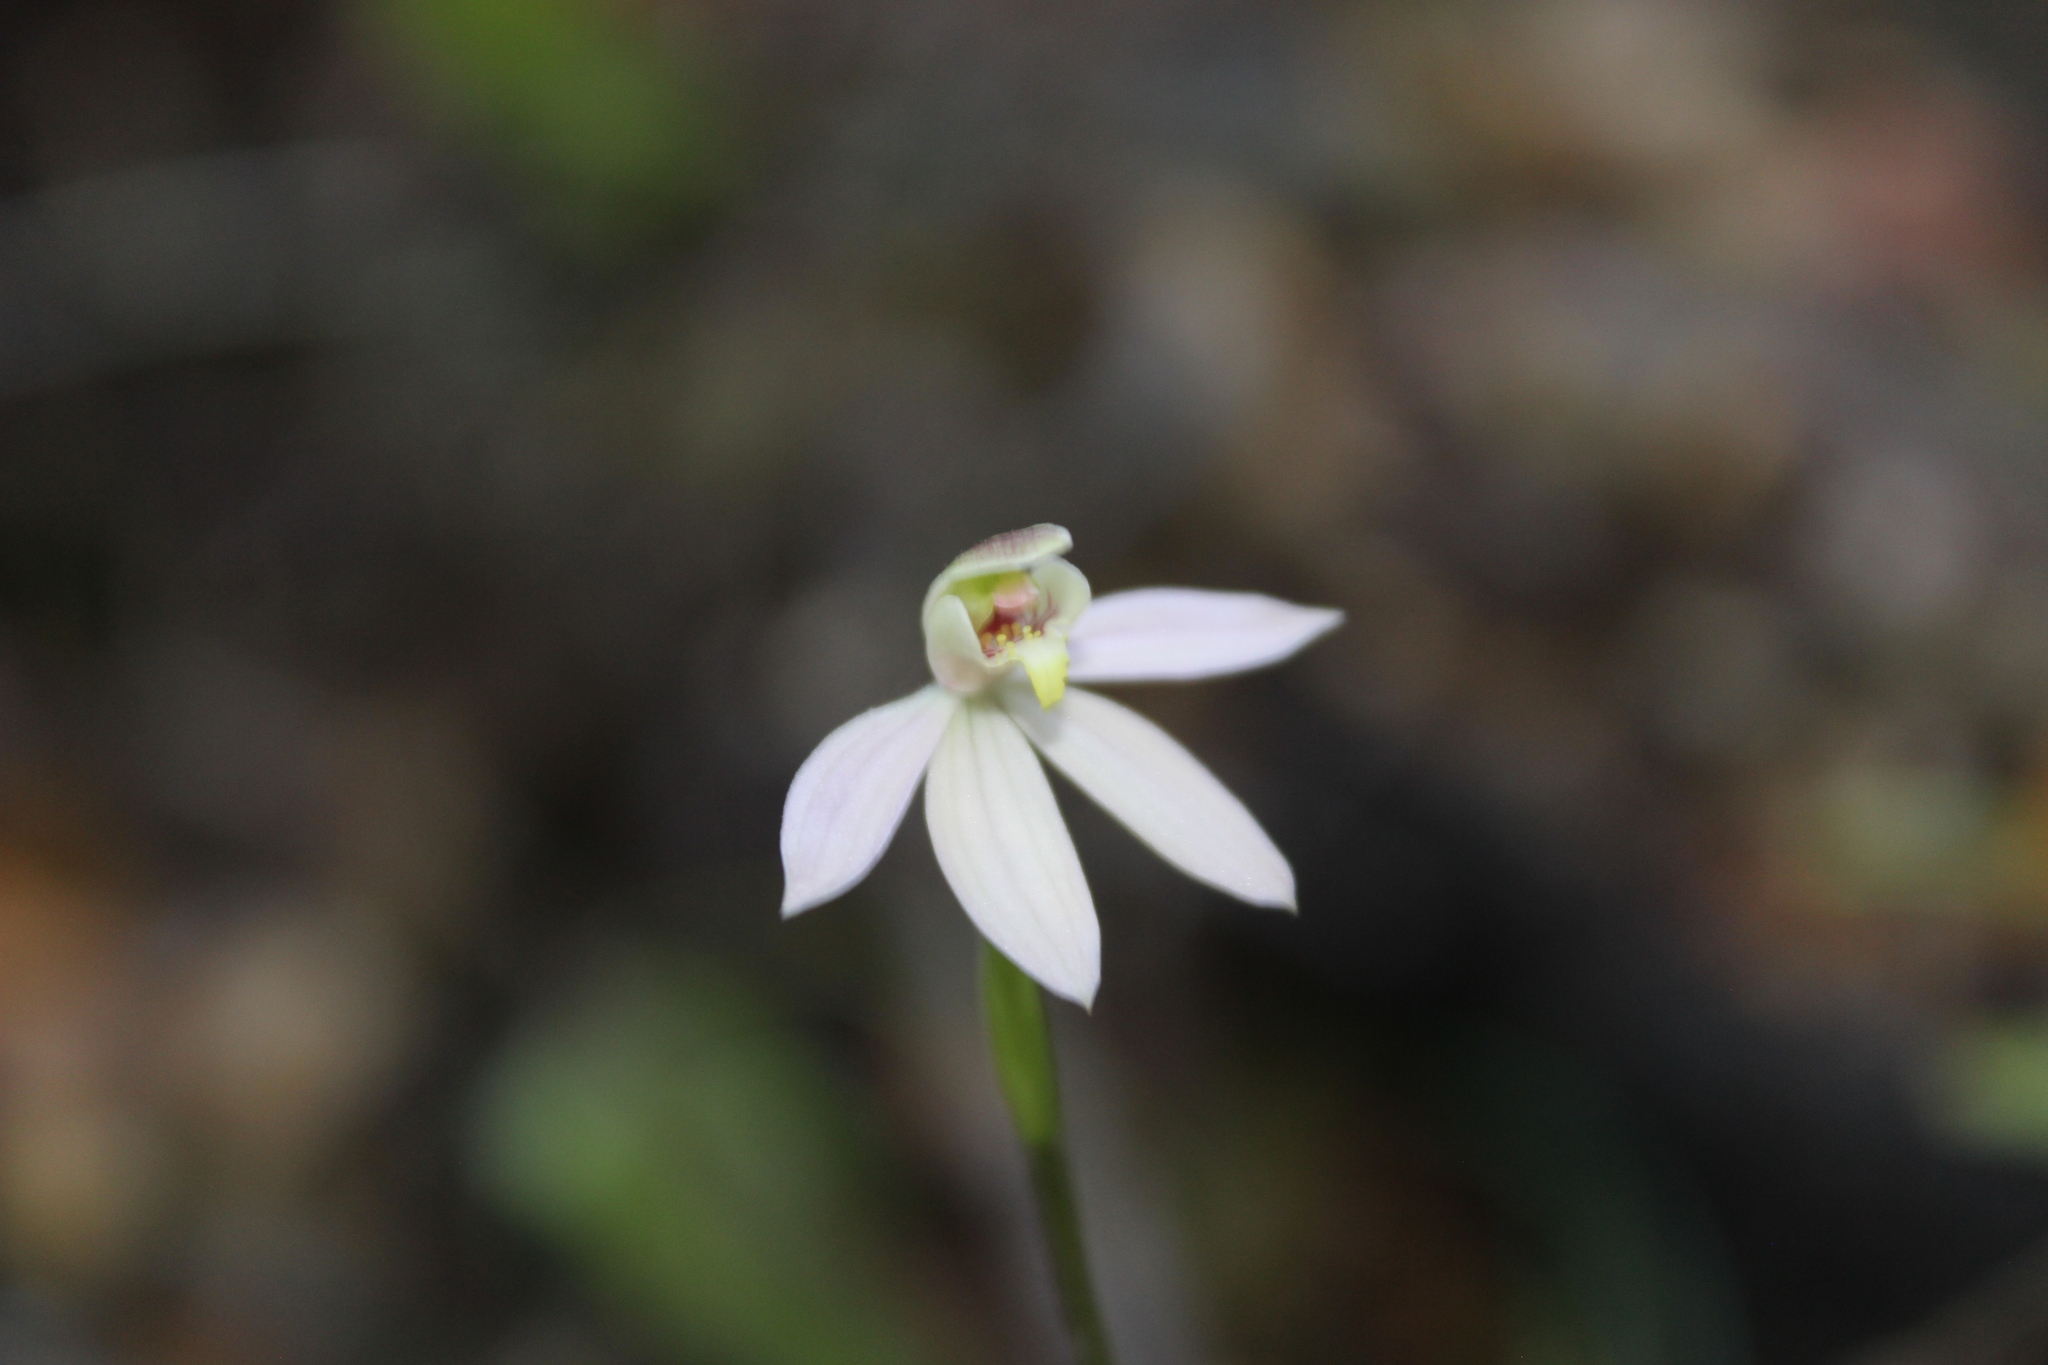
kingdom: Plantae
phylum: Tracheophyta
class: Liliopsida
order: Asparagales
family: Orchidaceae
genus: Caladenia
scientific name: Caladenia variegata
